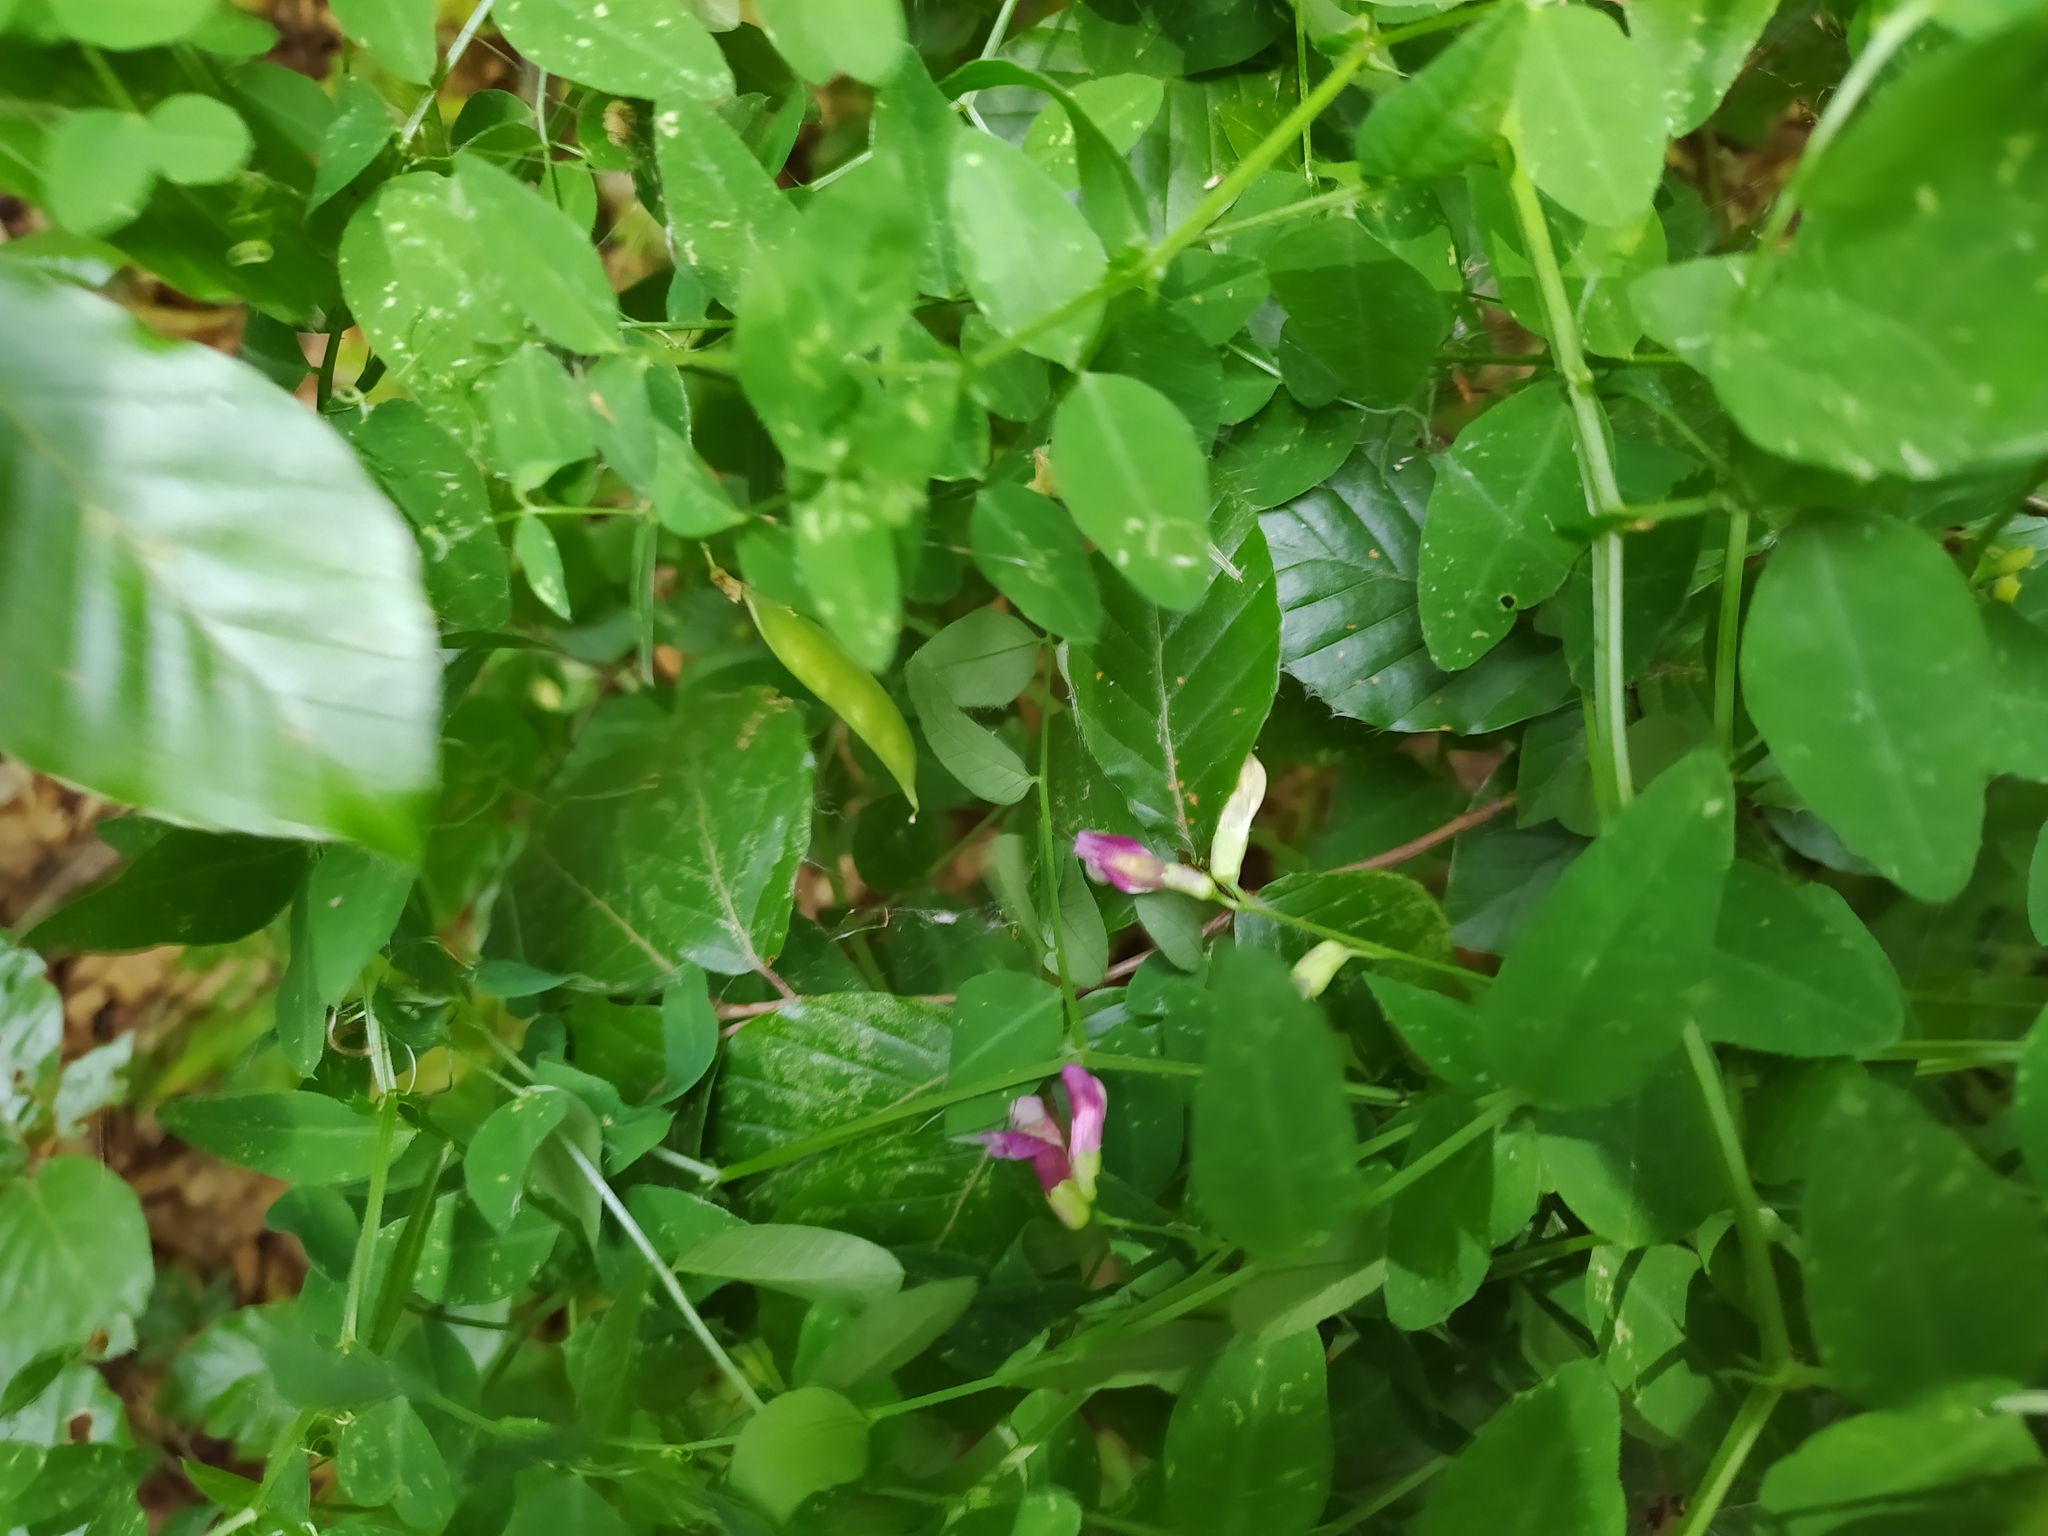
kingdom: Plantae
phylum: Tracheophyta
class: Magnoliopsida
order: Fabales
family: Fabaceae
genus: Vicia
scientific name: Vicia dumetorum
